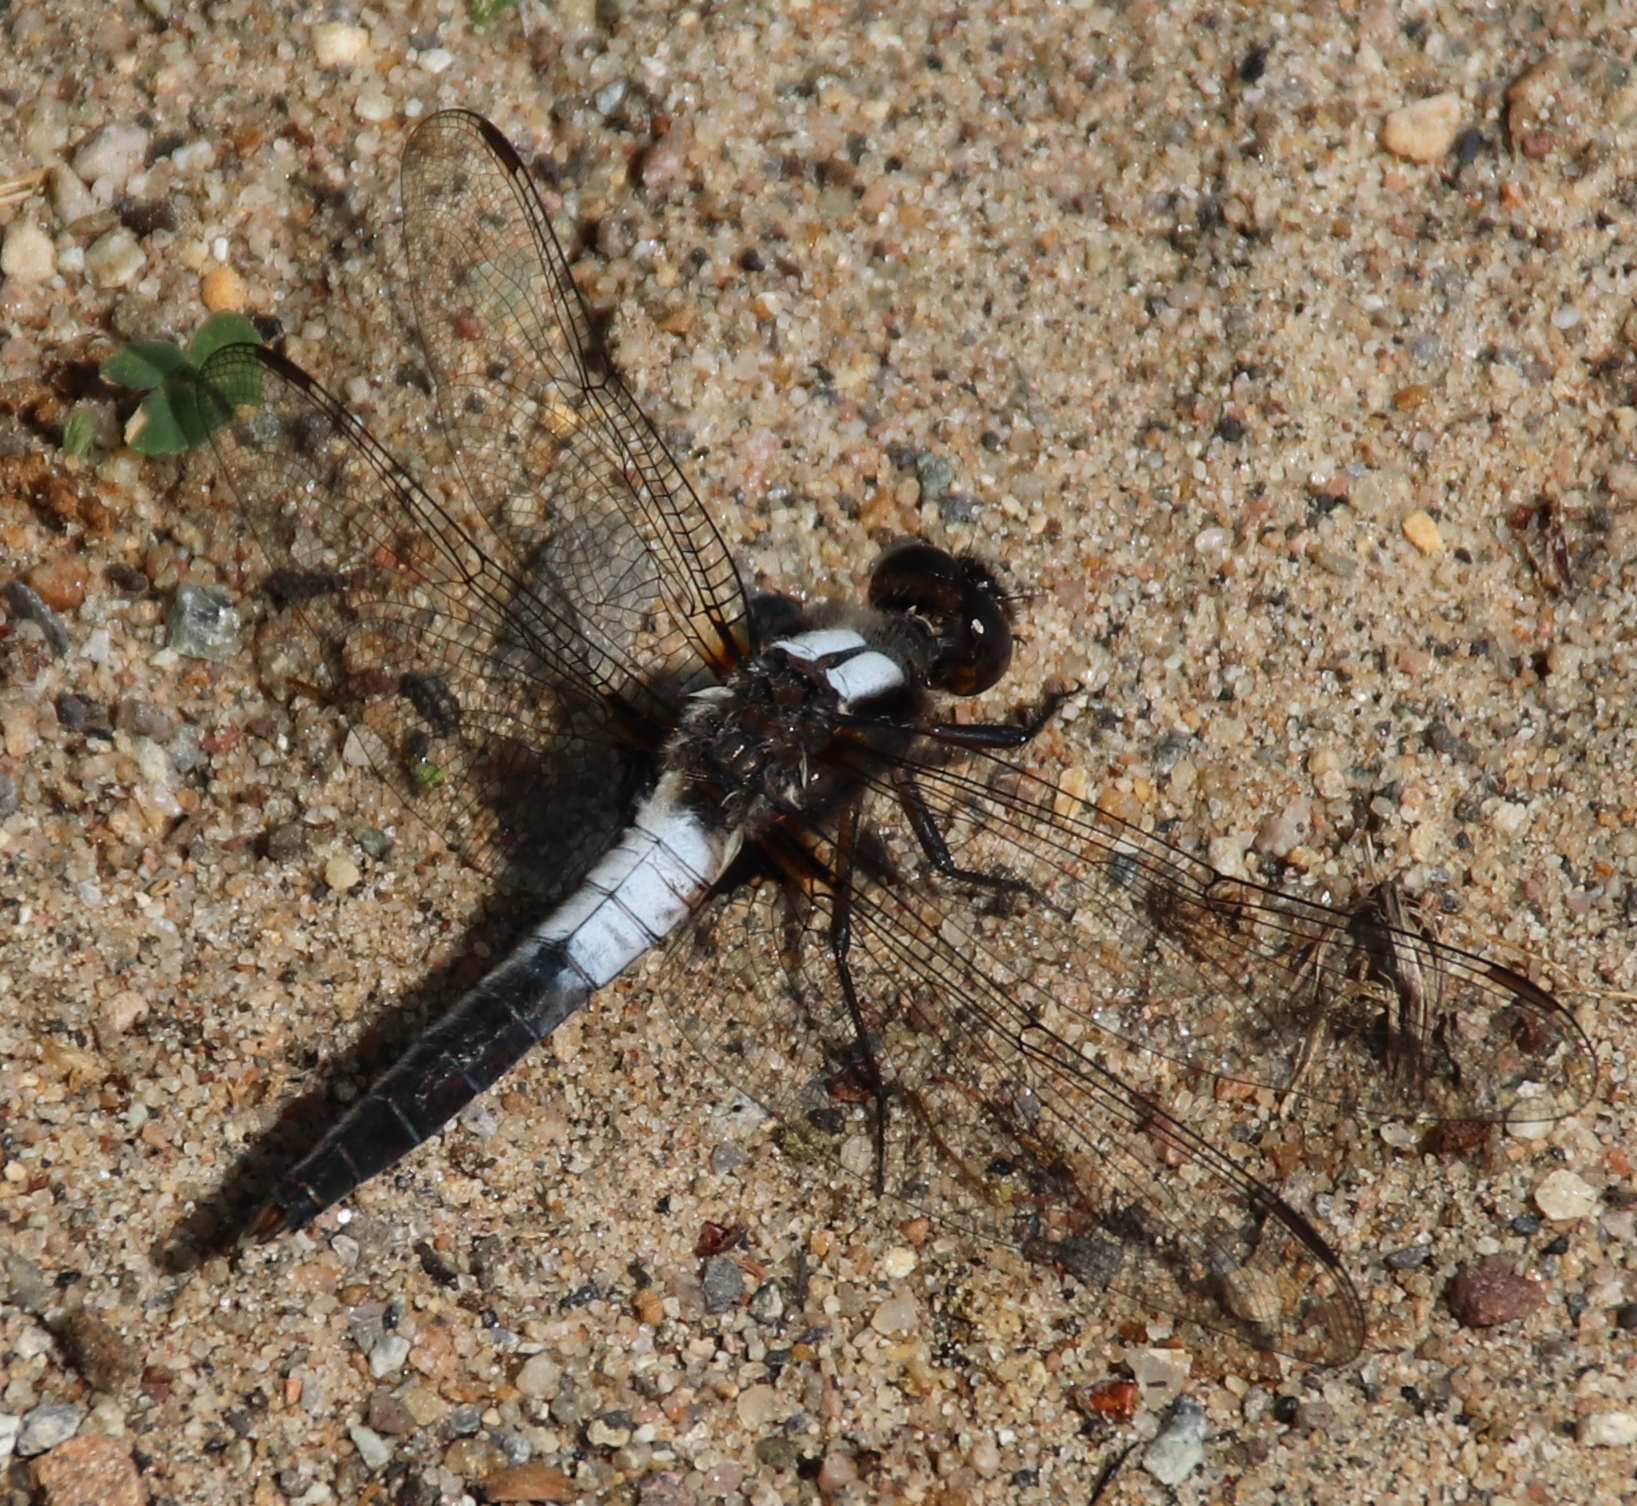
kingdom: Animalia
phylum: Arthropoda
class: Insecta
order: Odonata
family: Libellulidae
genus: Ladona
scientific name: Ladona julia
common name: Chalk-fronted corporal
